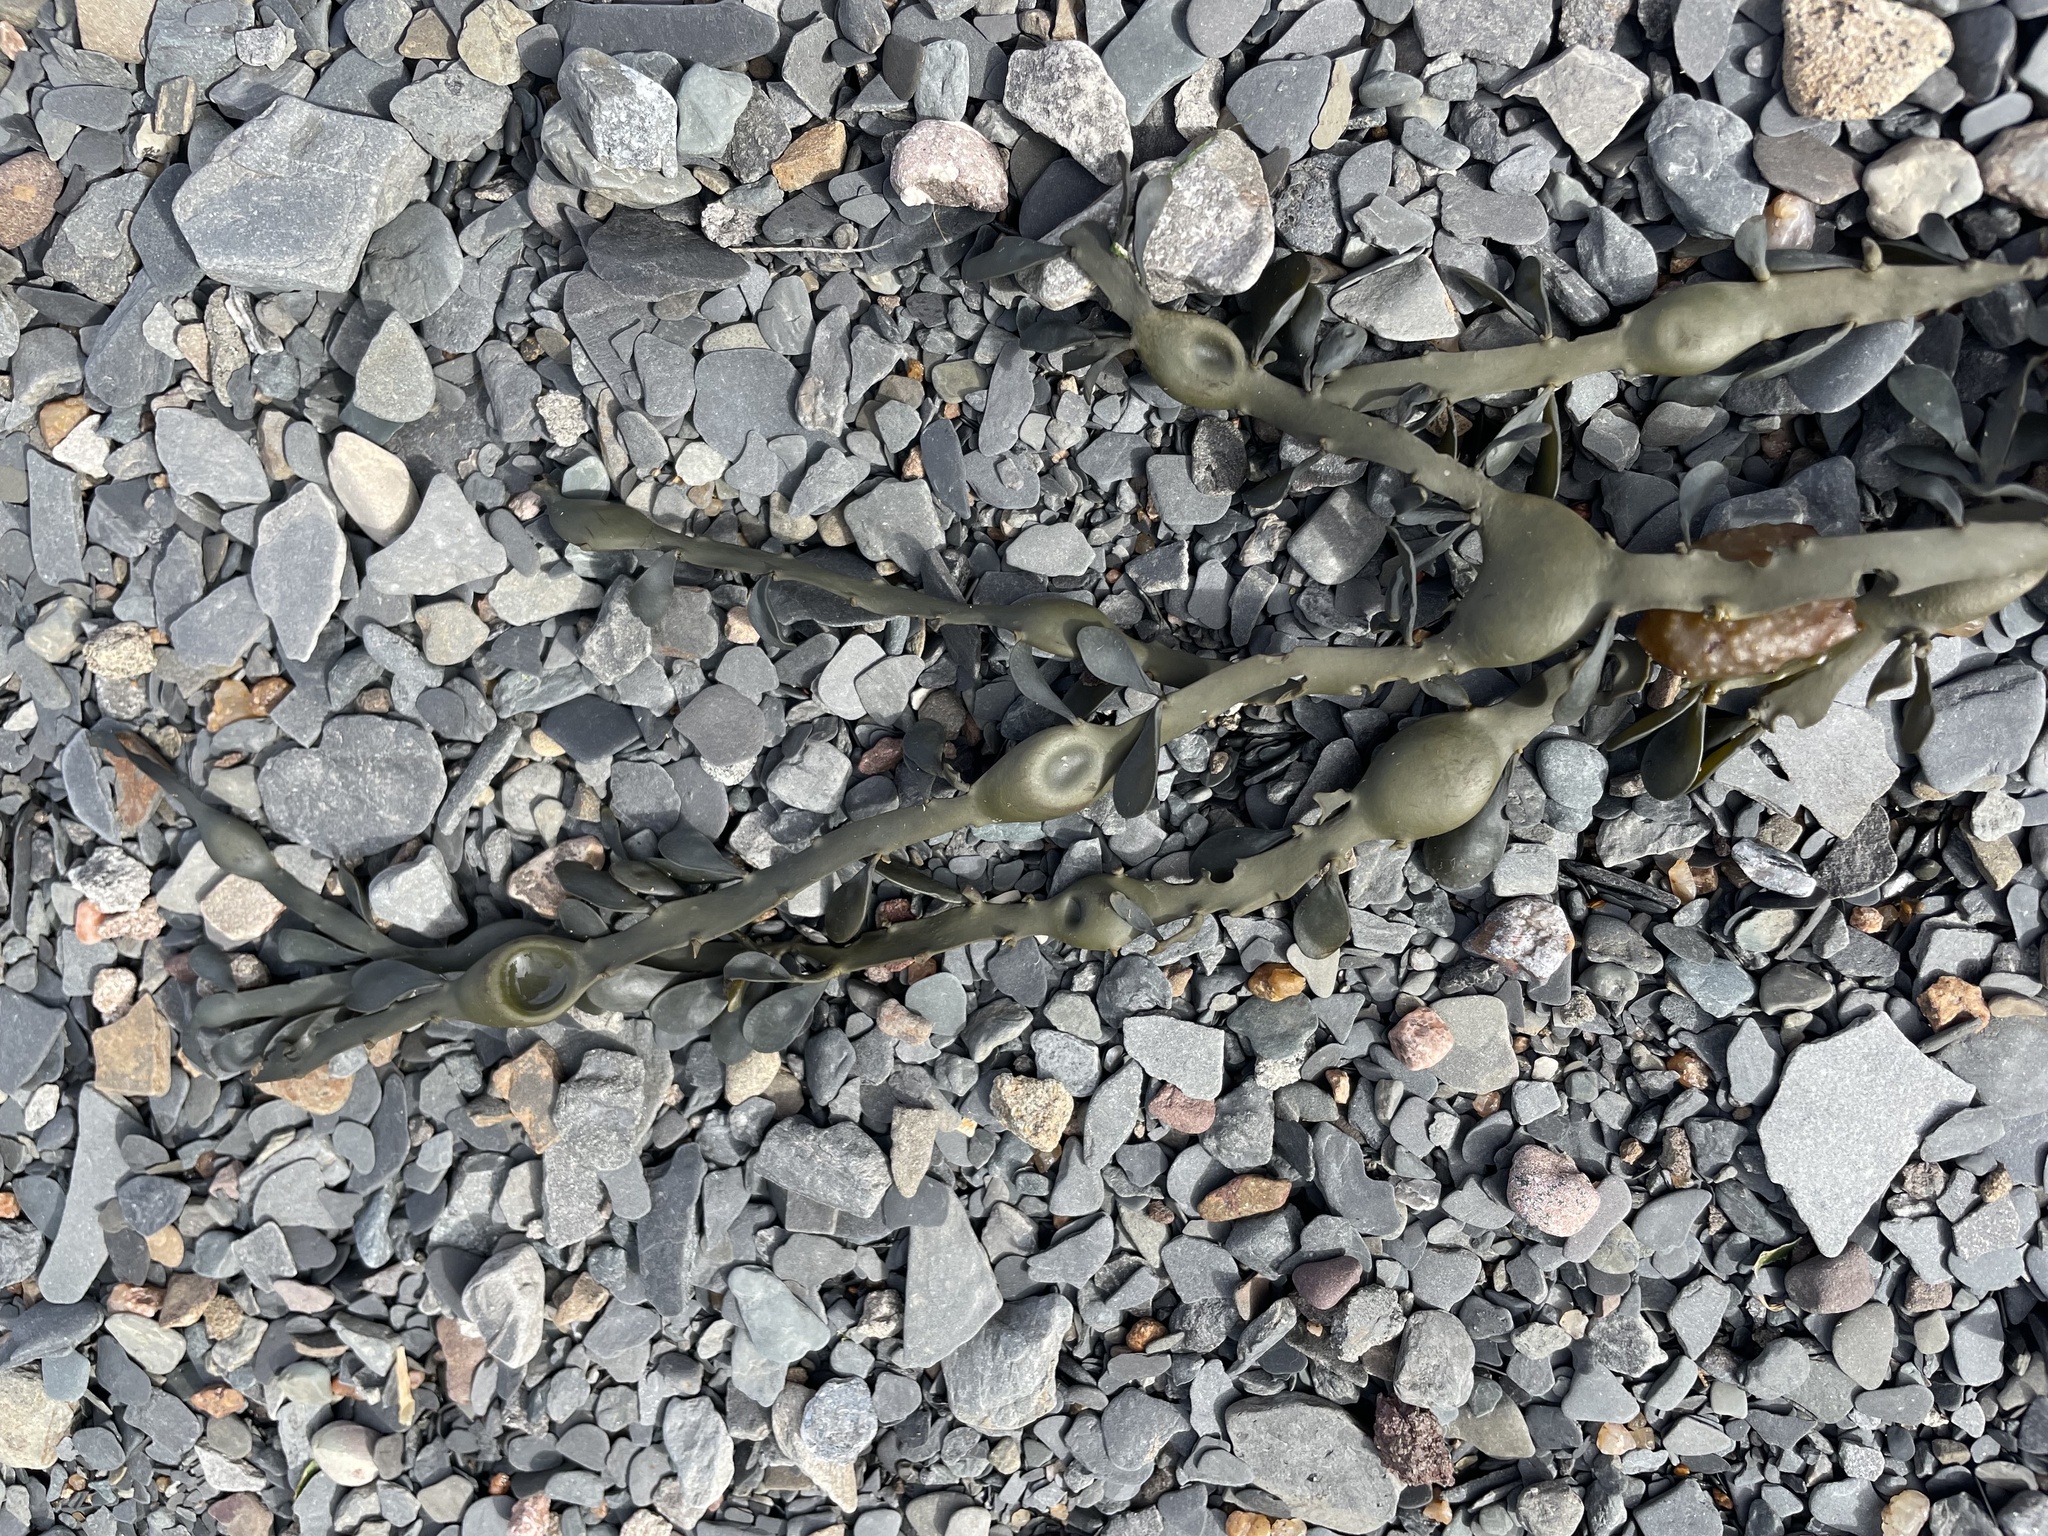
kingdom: Chromista
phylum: Ochrophyta
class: Phaeophyceae
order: Fucales
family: Fucaceae
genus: Ascophyllum
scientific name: Ascophyllum nodosum
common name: Knotted wrack
